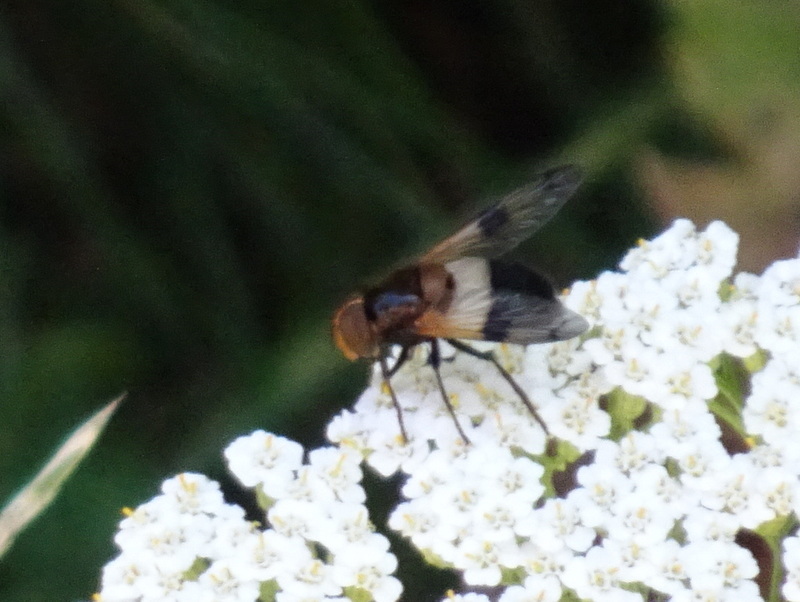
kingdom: Animalia
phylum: Arthropoda
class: Insecta
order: Diptera
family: Syrphidae
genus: Volucella
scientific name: Volucella pellucens
